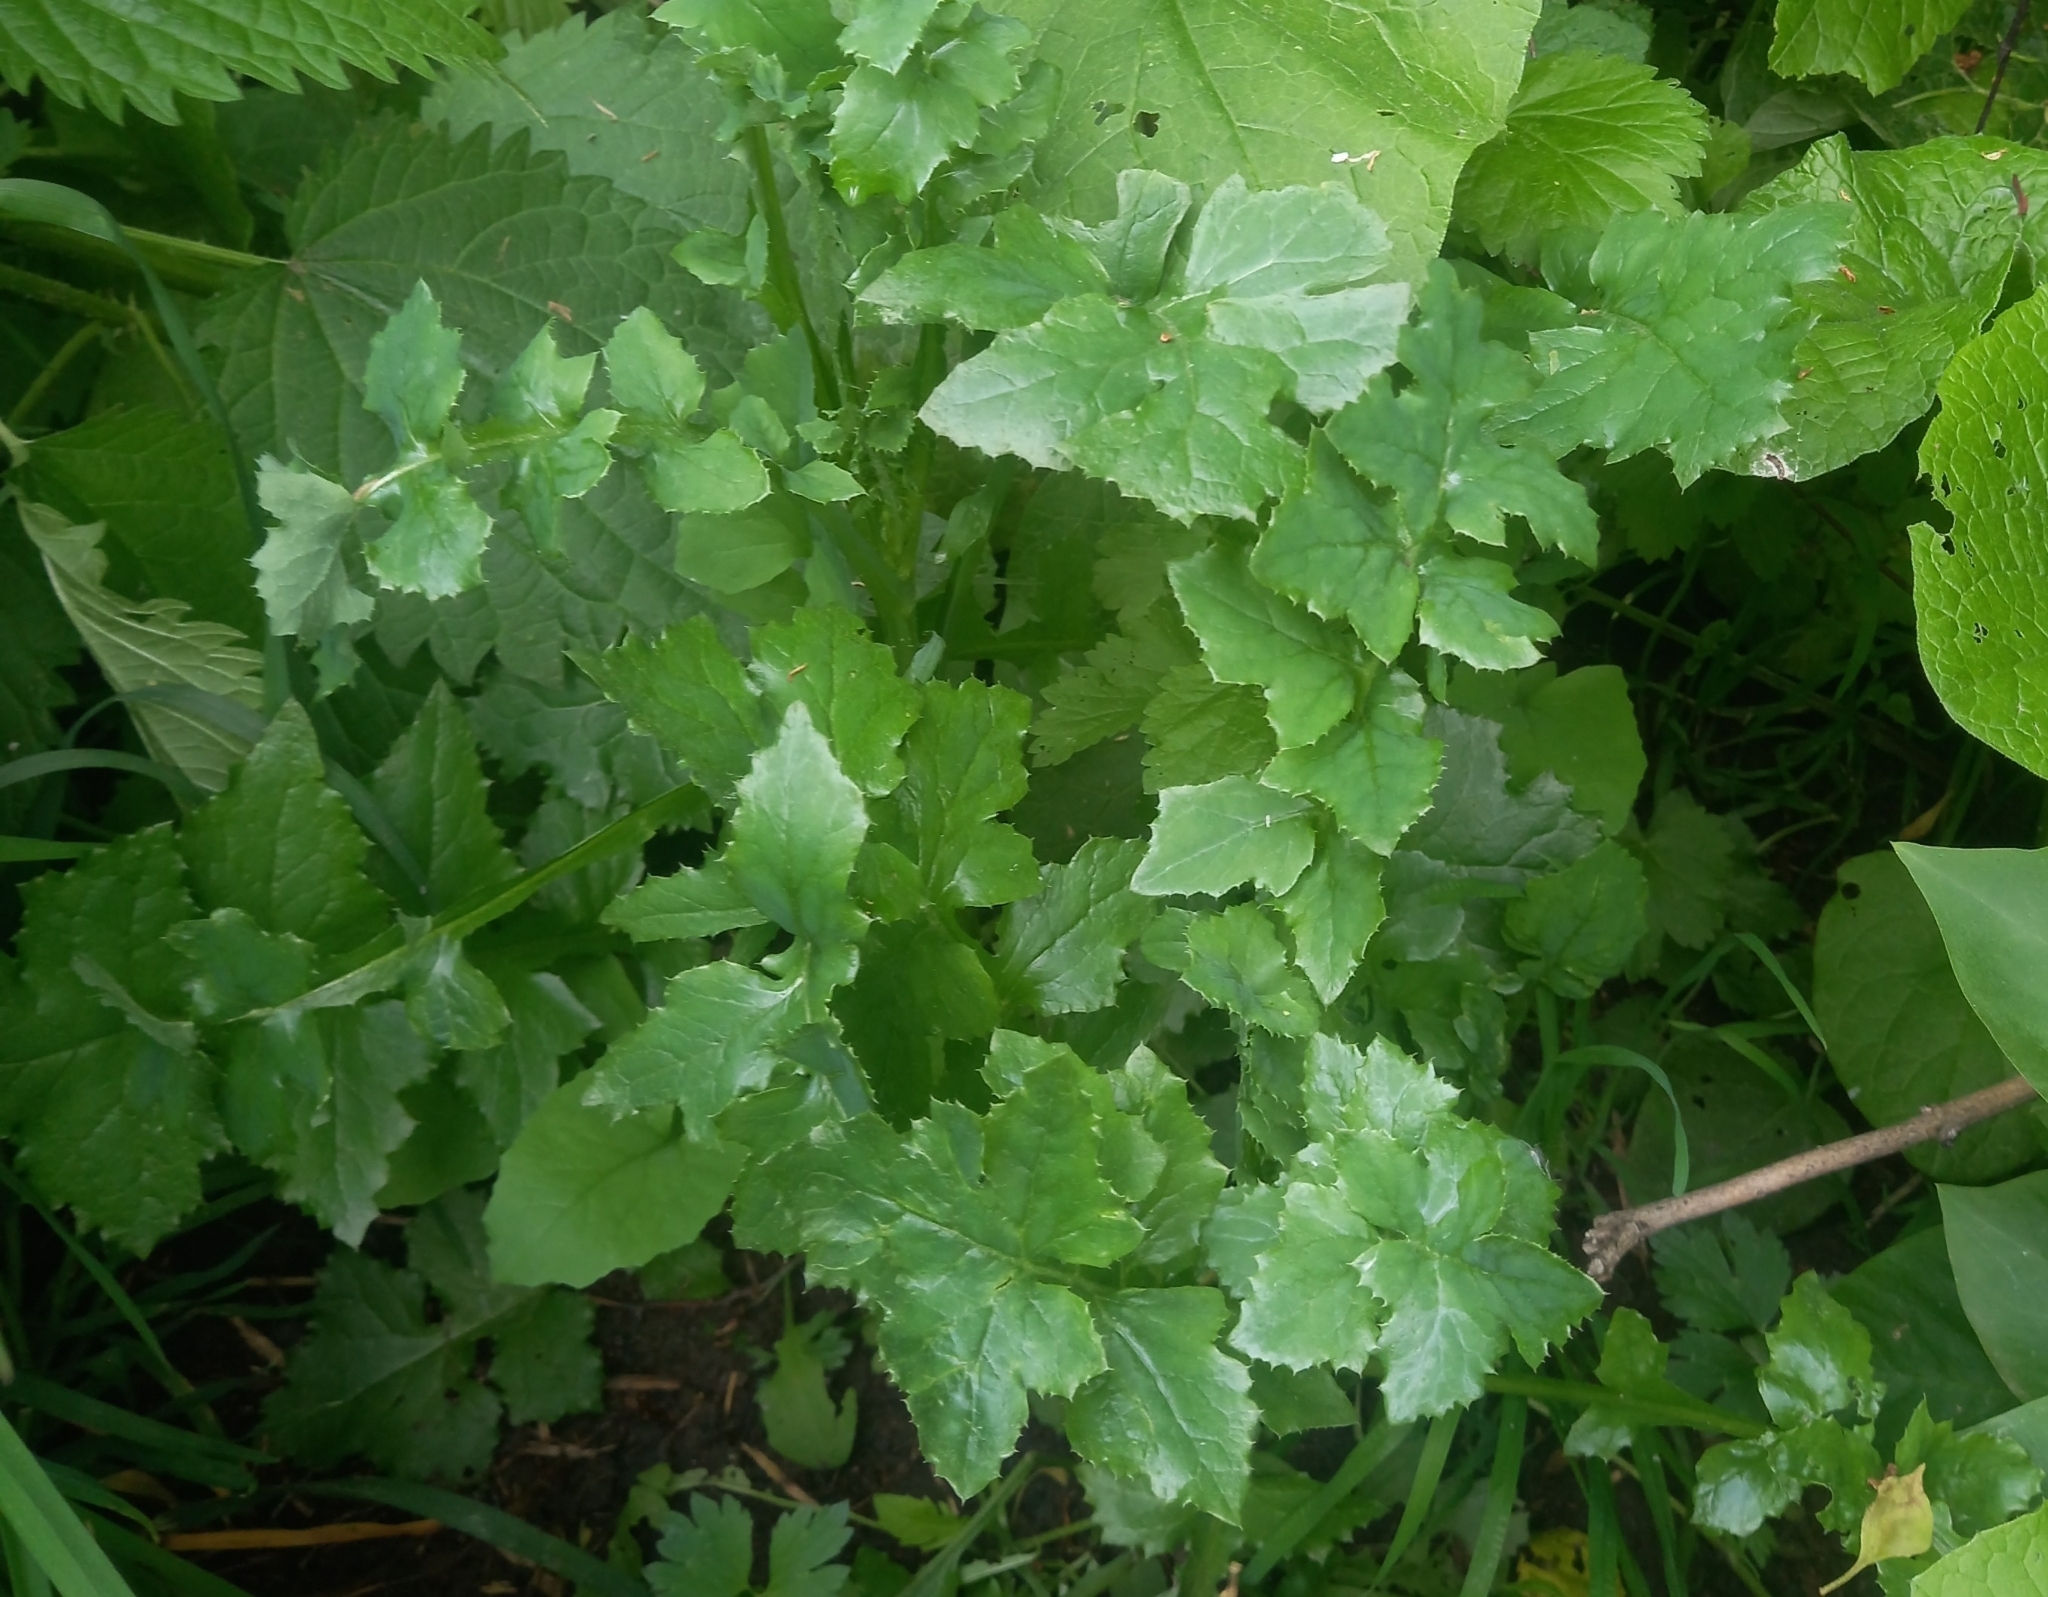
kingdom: Plantae
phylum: Tracheophyta
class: Magnoliopsida
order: Asterales
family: Asteraceae
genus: Sonchus
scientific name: Sonchus oleraceus
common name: Common sowthistle
